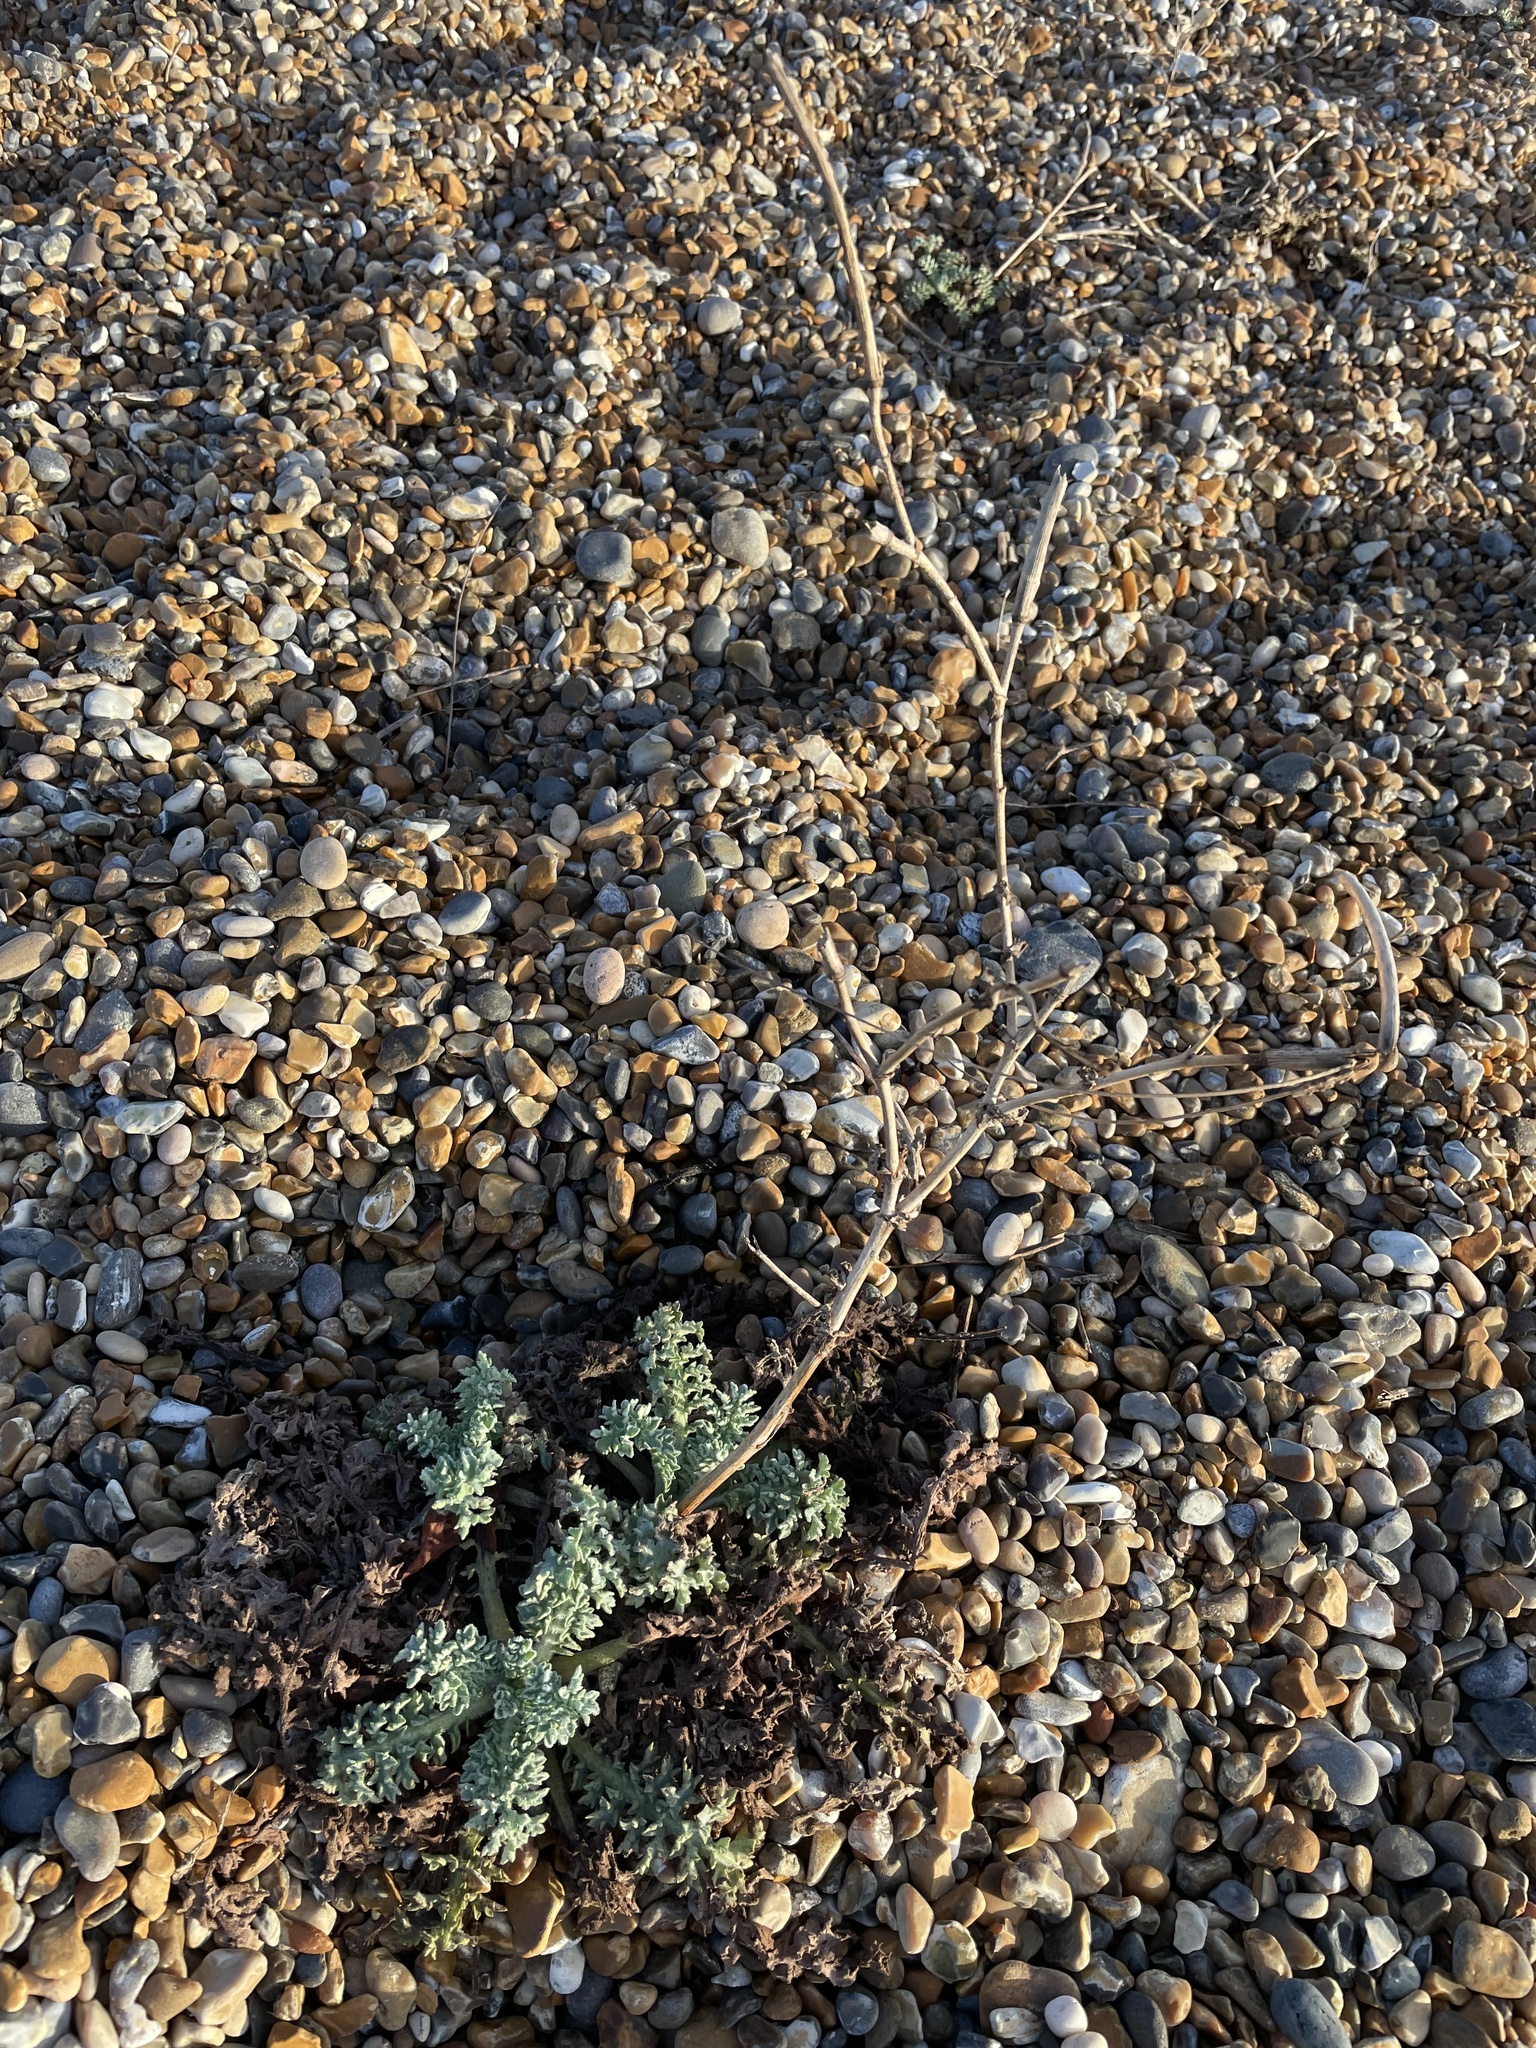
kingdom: Plantae
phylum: Tracheophyta
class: Magnoliopsida
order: Ranunculales
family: Papaveraceae
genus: Glaucium
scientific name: Glaucium flavum
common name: Yellow horned-poppy
